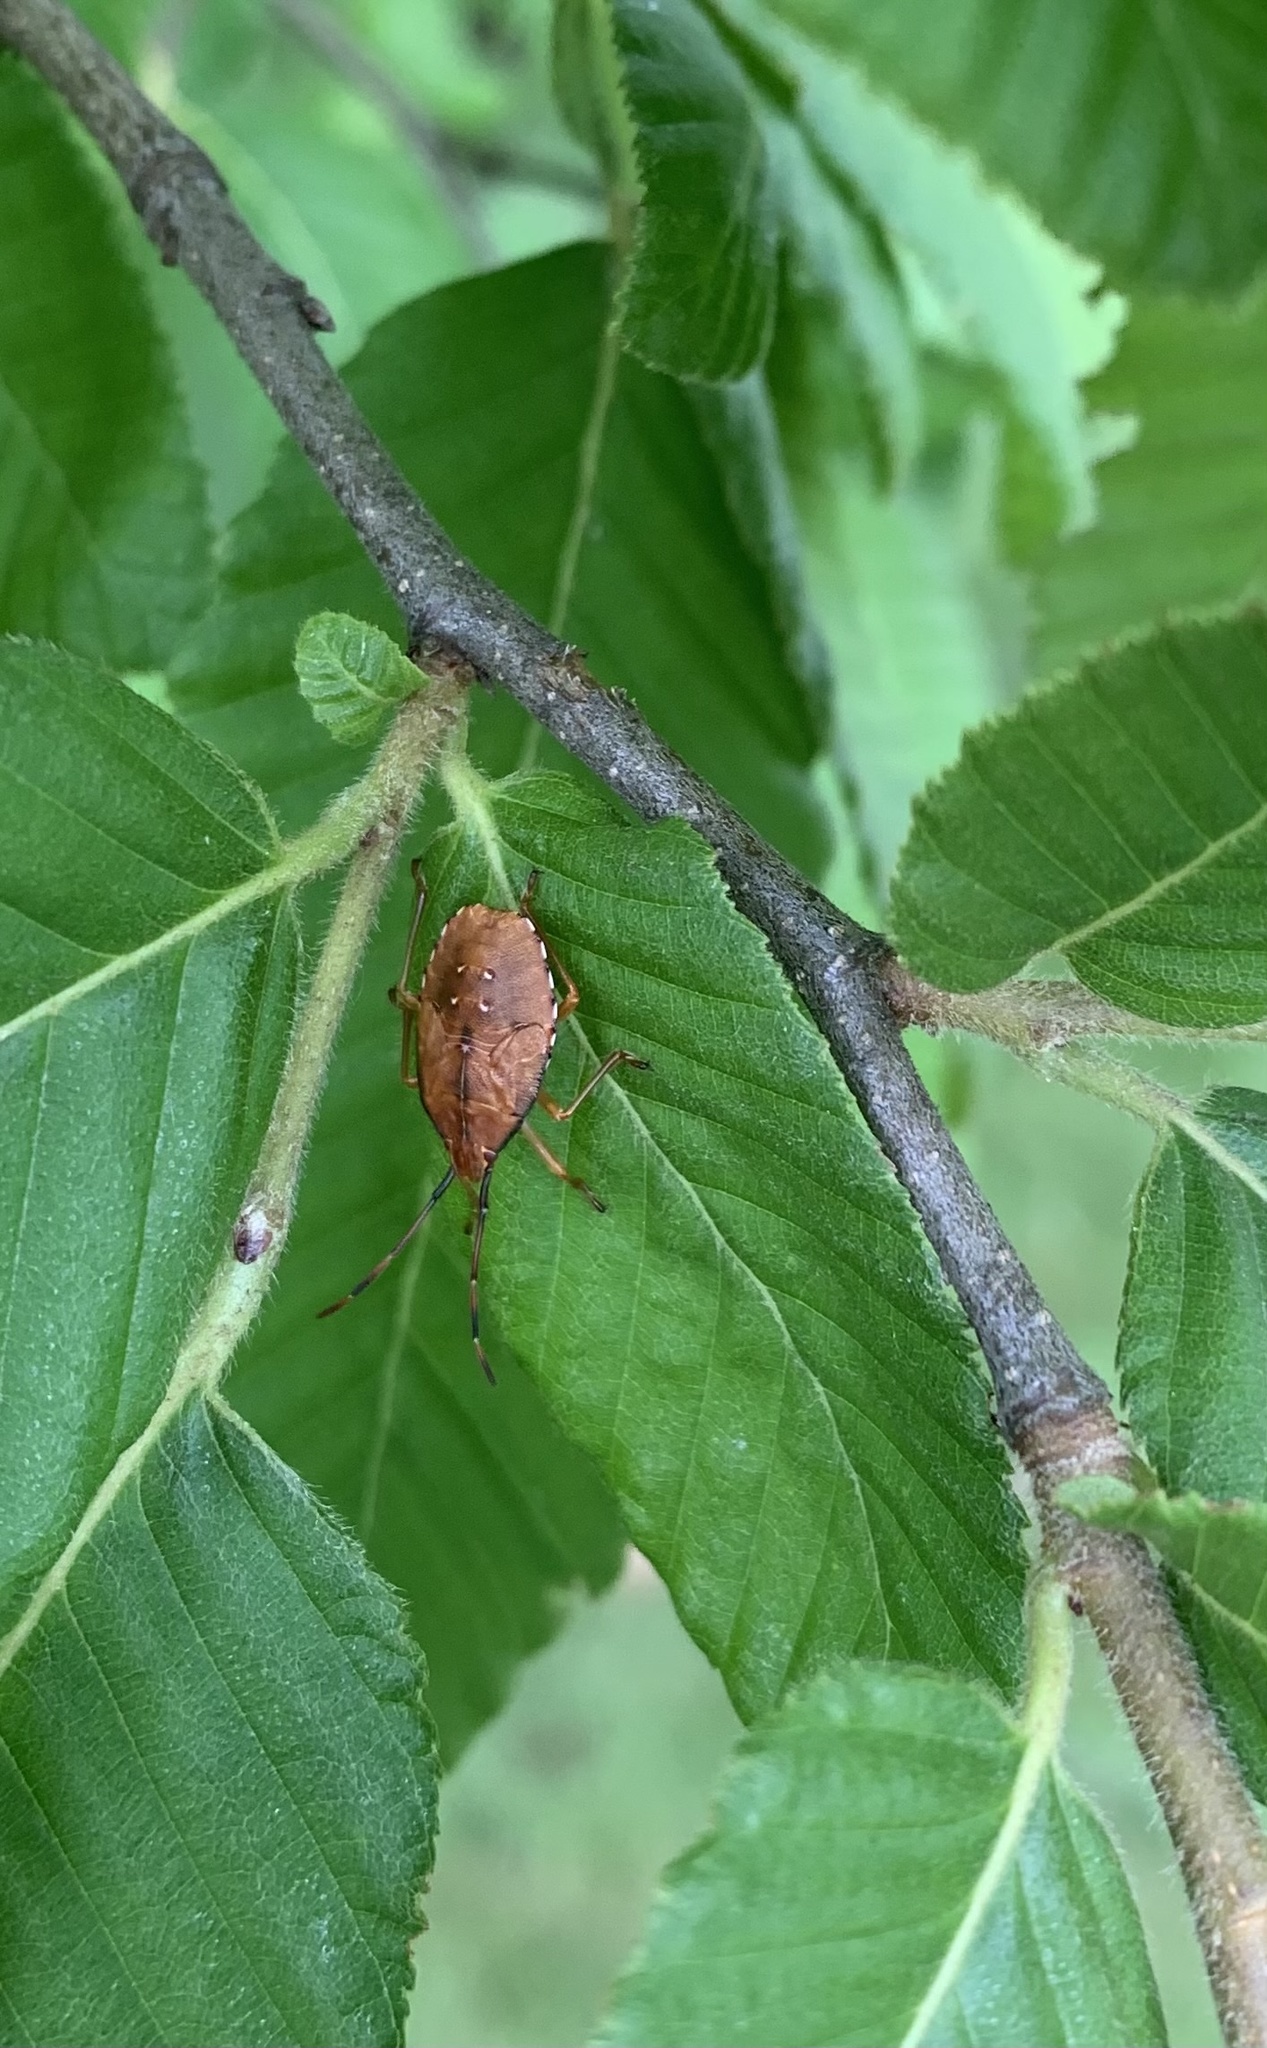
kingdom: Animalia
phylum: Arthropoda
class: Insecta
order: Hemiptera
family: Acanthosomatidae
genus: Planois
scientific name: Planois gayi
